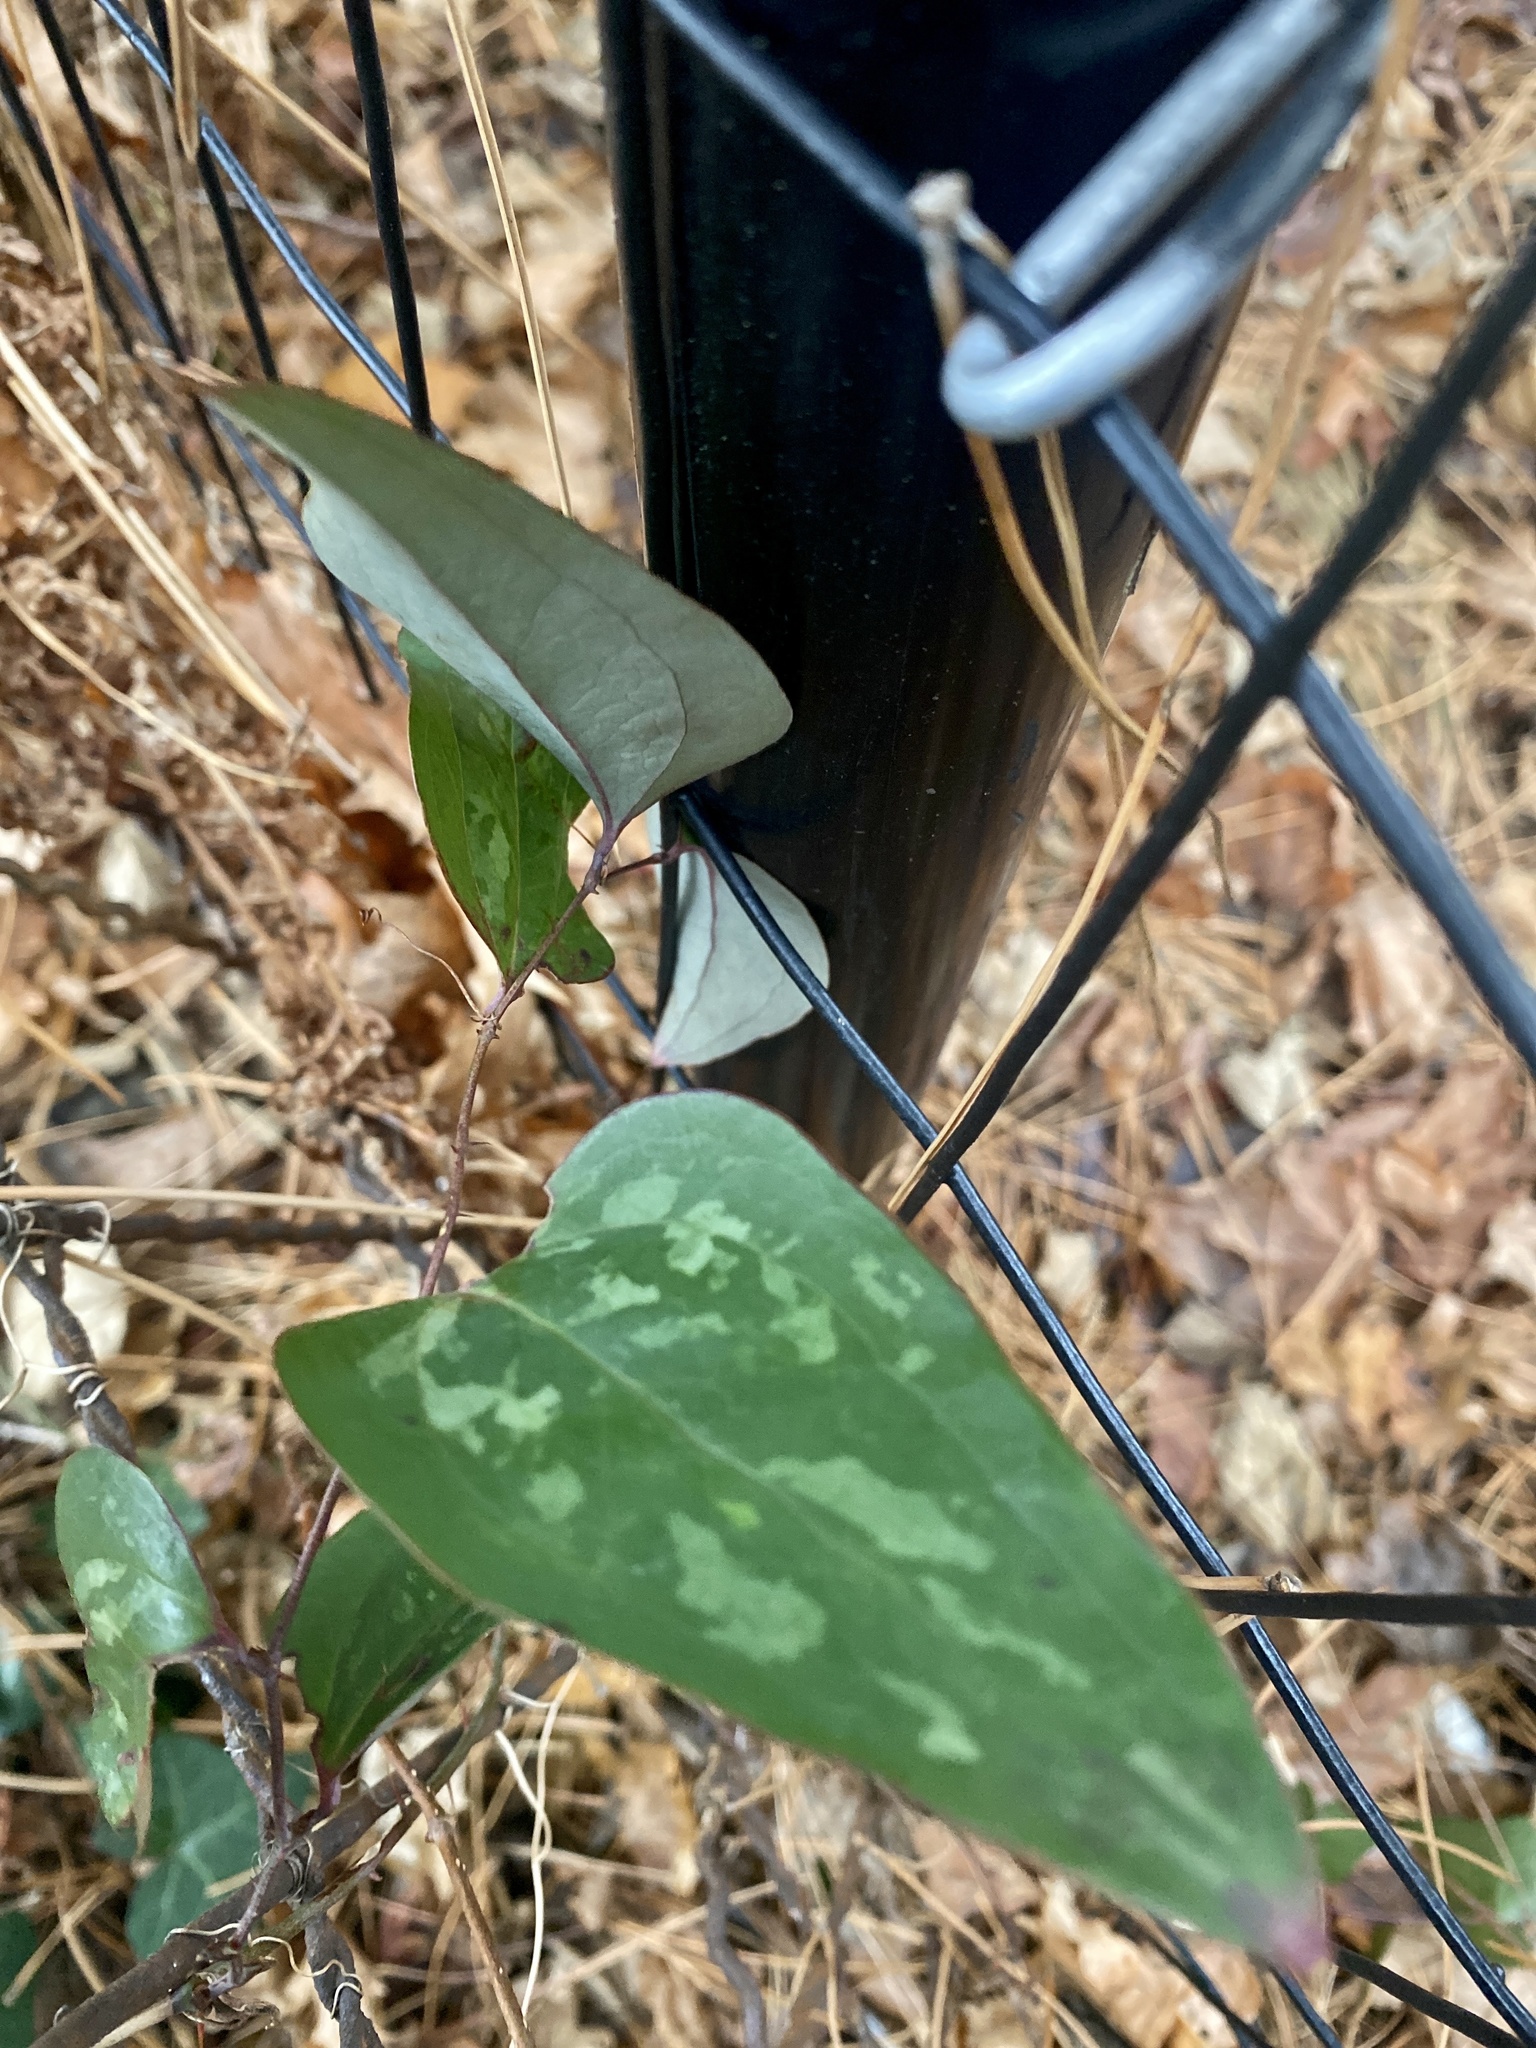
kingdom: Plantae
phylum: Tracheophyta
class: Liliopsida
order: Liliales
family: Smilacaceae
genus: Smilax
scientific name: Smilax glauca
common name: Cat greenbrier
